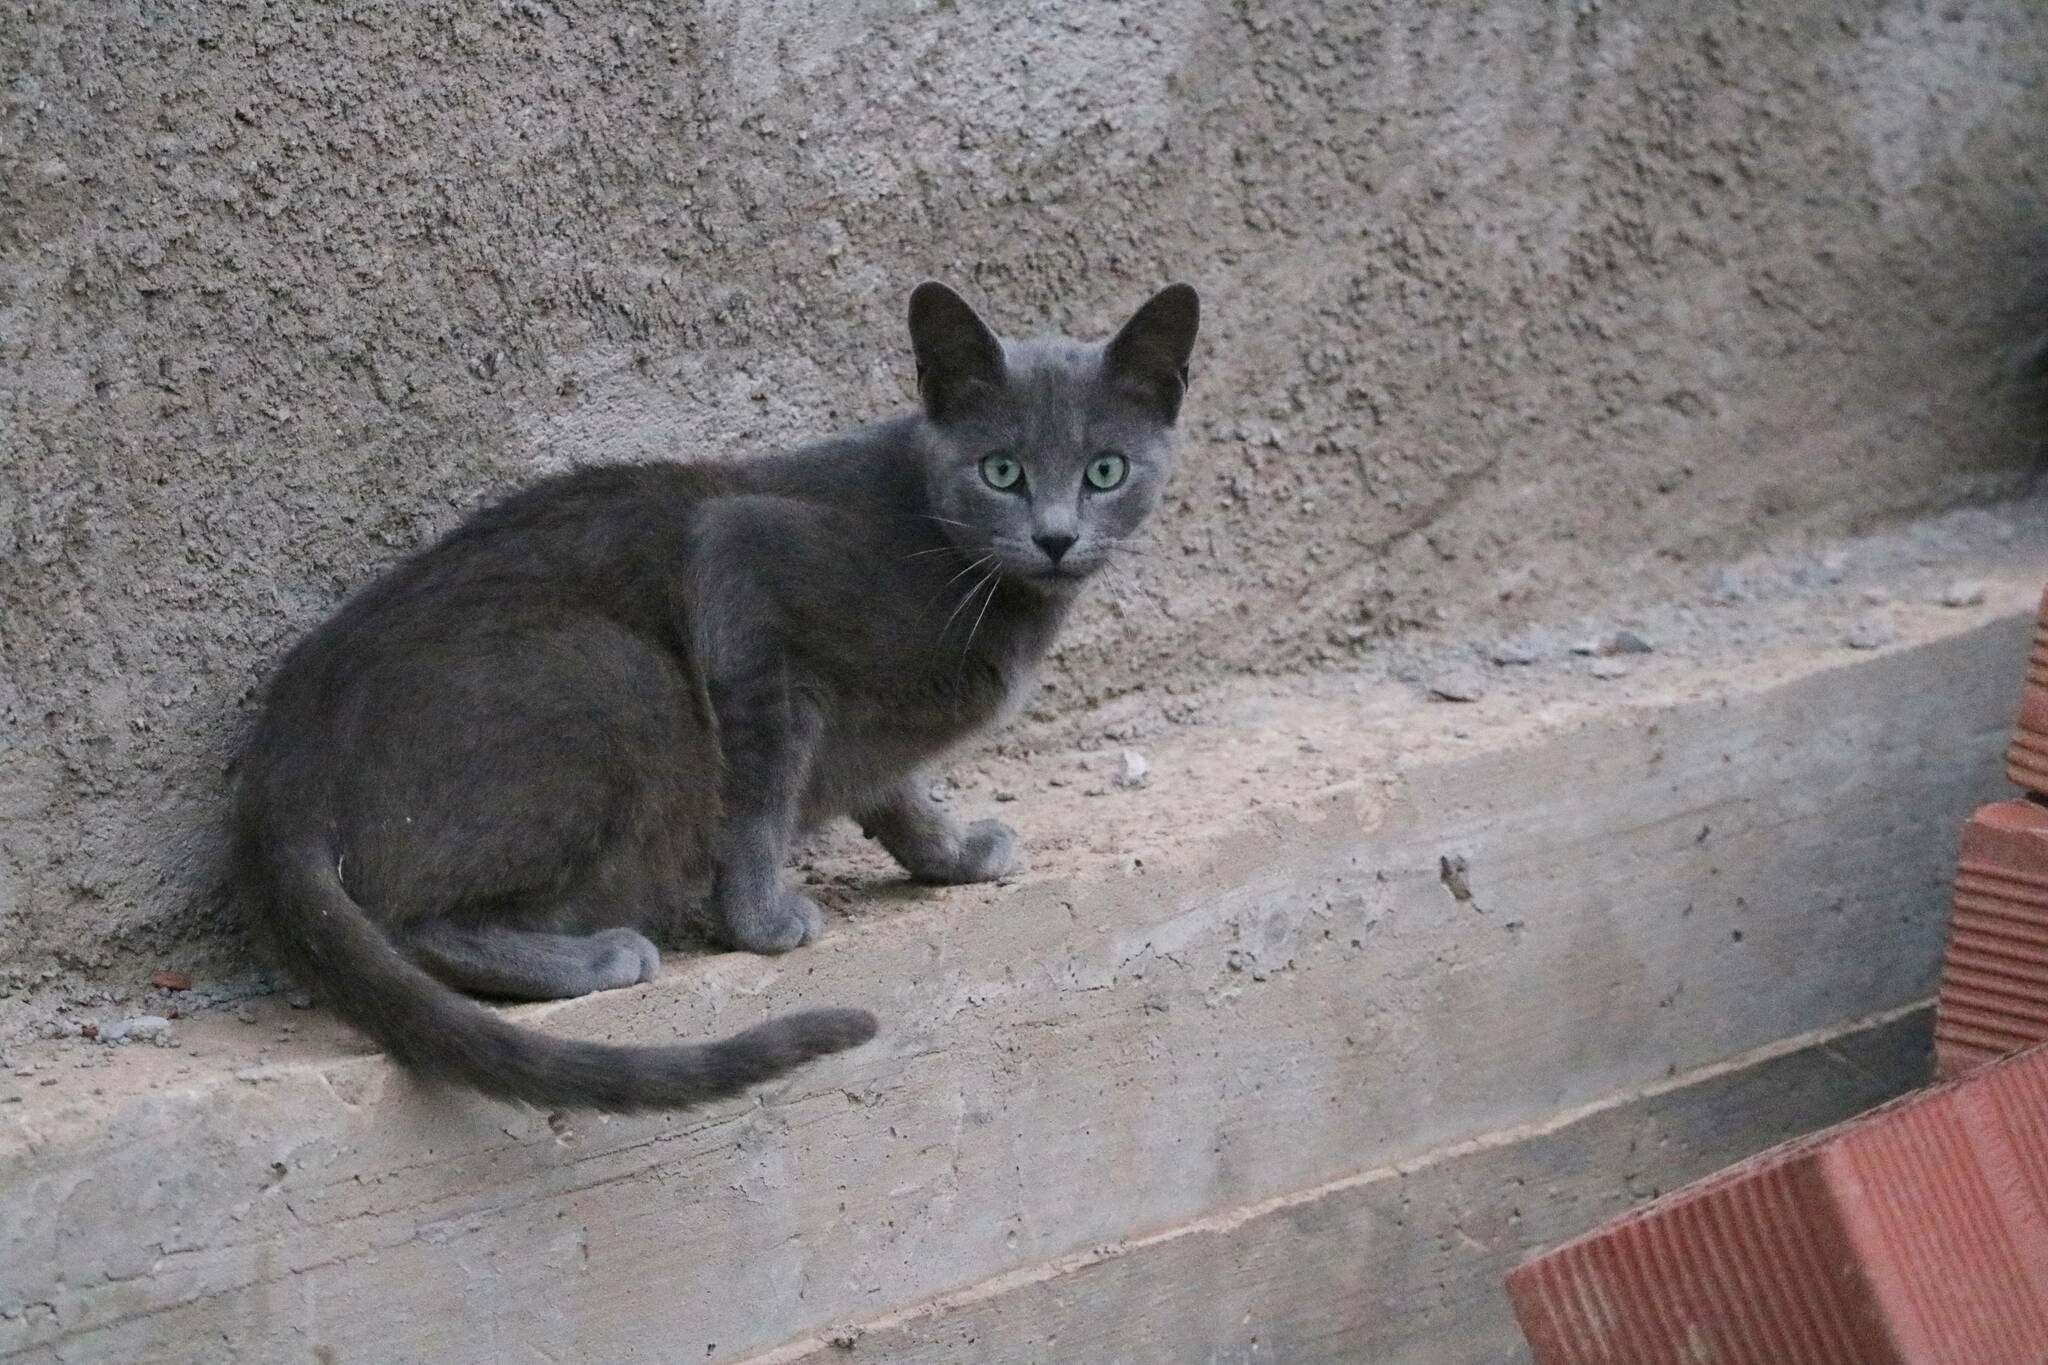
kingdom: Animalia
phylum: Chordata
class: Mammalia
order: Carnivora
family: Felidae
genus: Felis
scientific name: Felis catus
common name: Domestic cat
